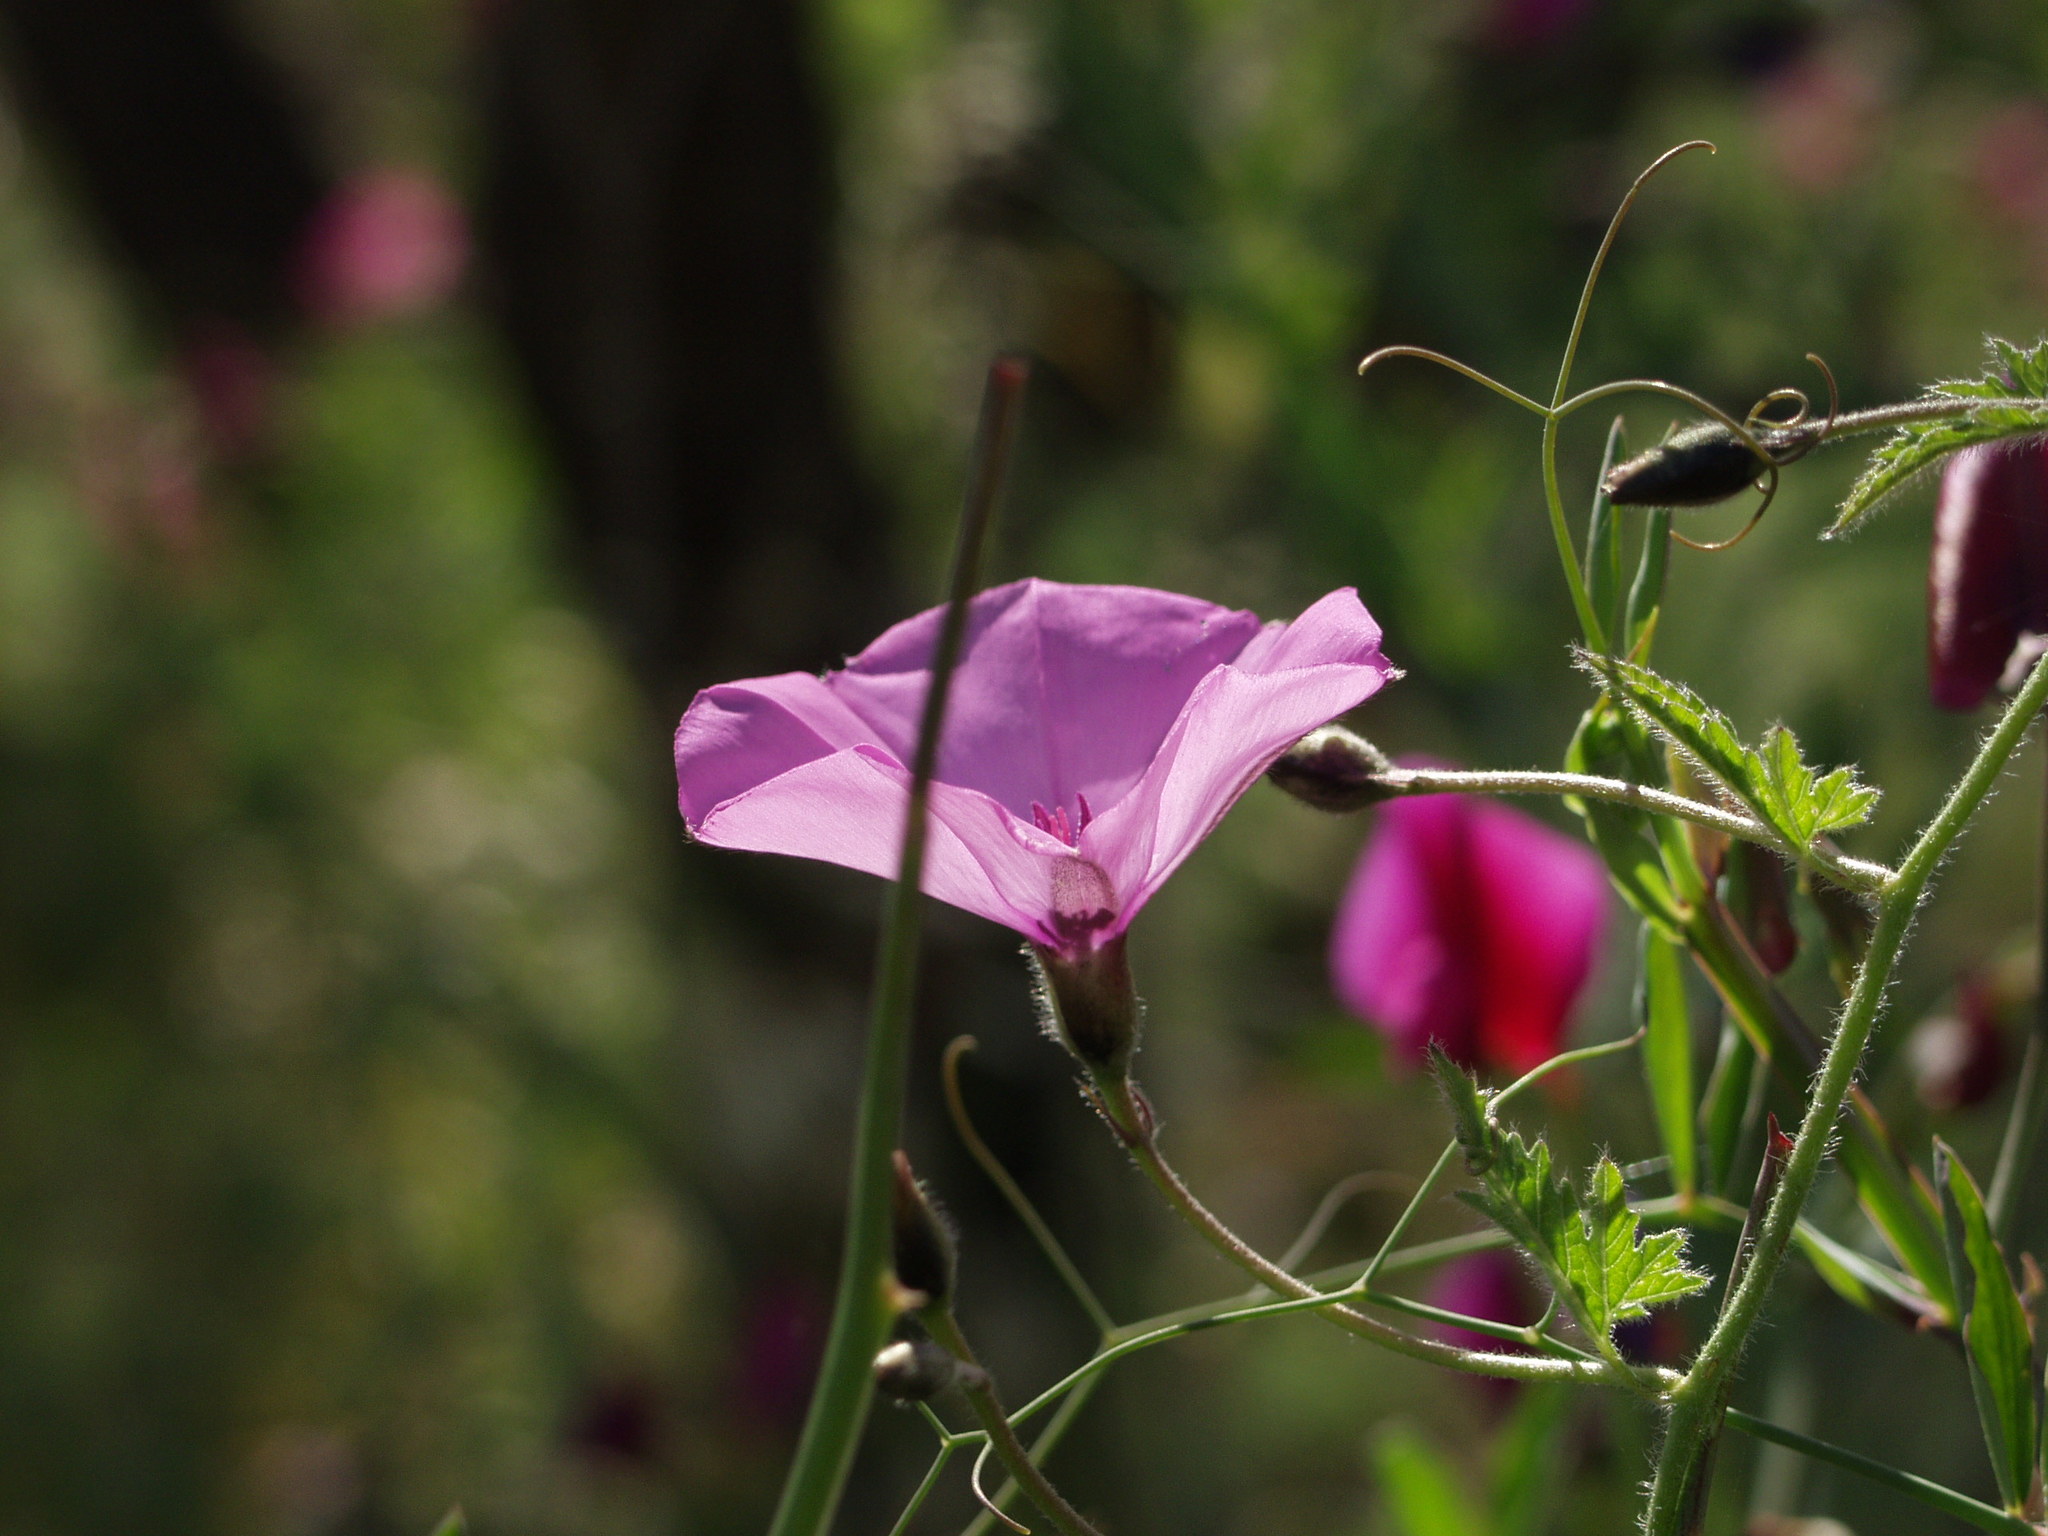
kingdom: Plantae
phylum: Tracheophyta
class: Magnoliopsida
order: Solanales
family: Convolvulaceae
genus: Convolvulus
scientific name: Convolvulus althaeoides
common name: Mallow bindweed
